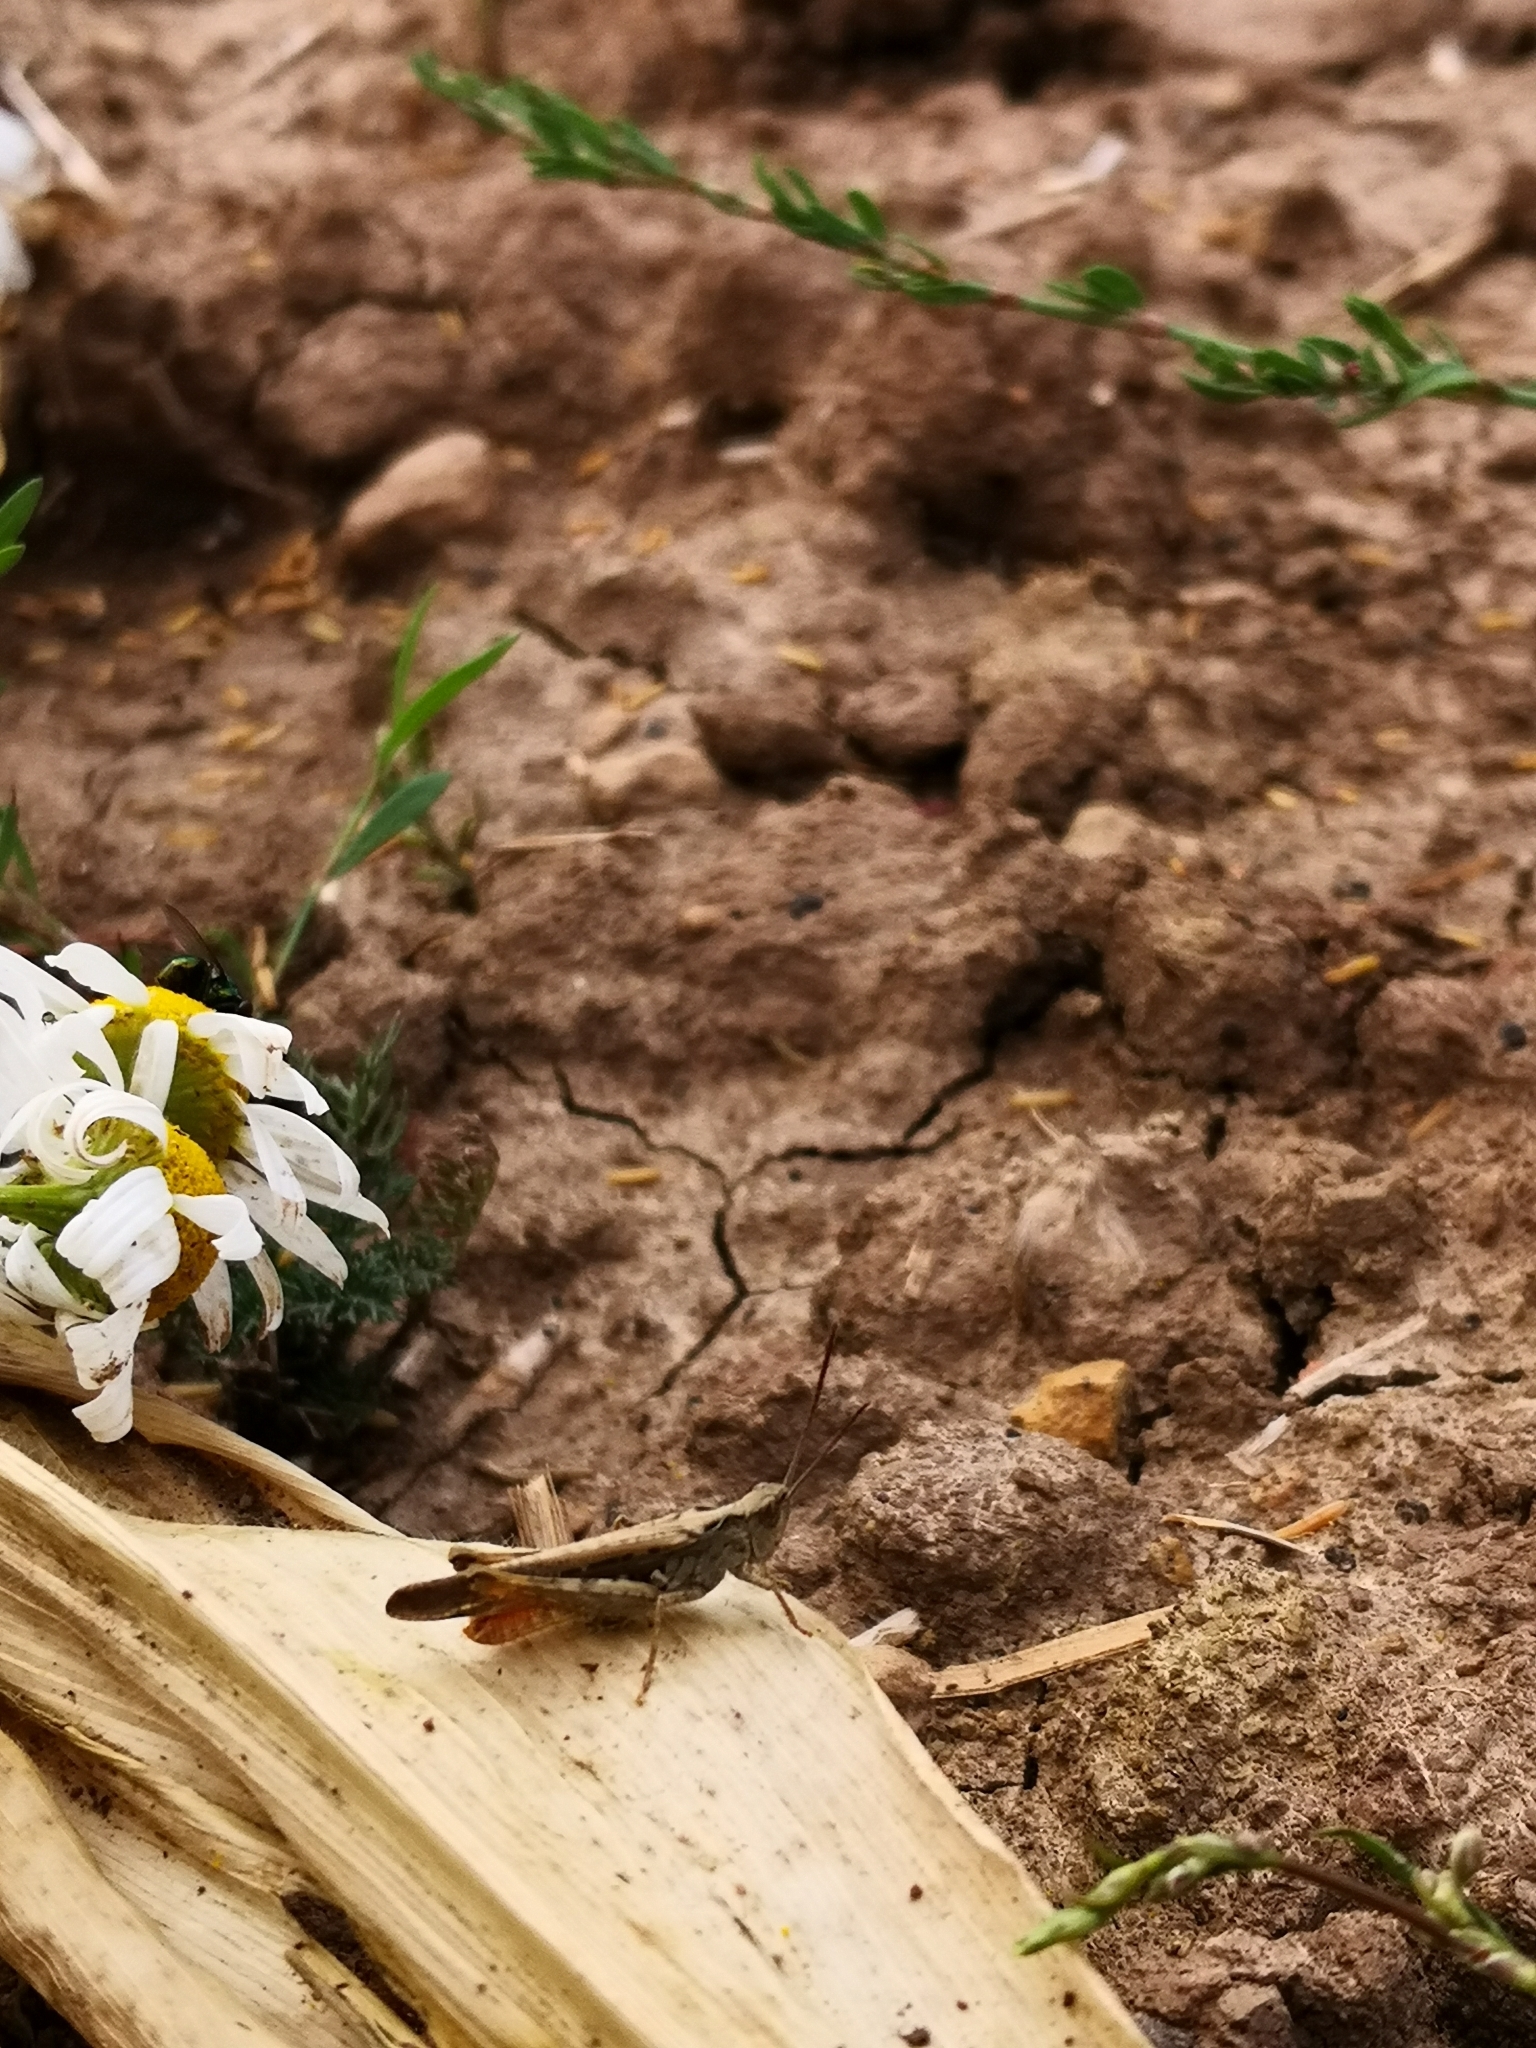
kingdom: Animalia
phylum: Arthropoda
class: Insecta
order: Orthoptera
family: Acrididae
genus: Chorthippus
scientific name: Chorthippus brunneus
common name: Field grasshopper
